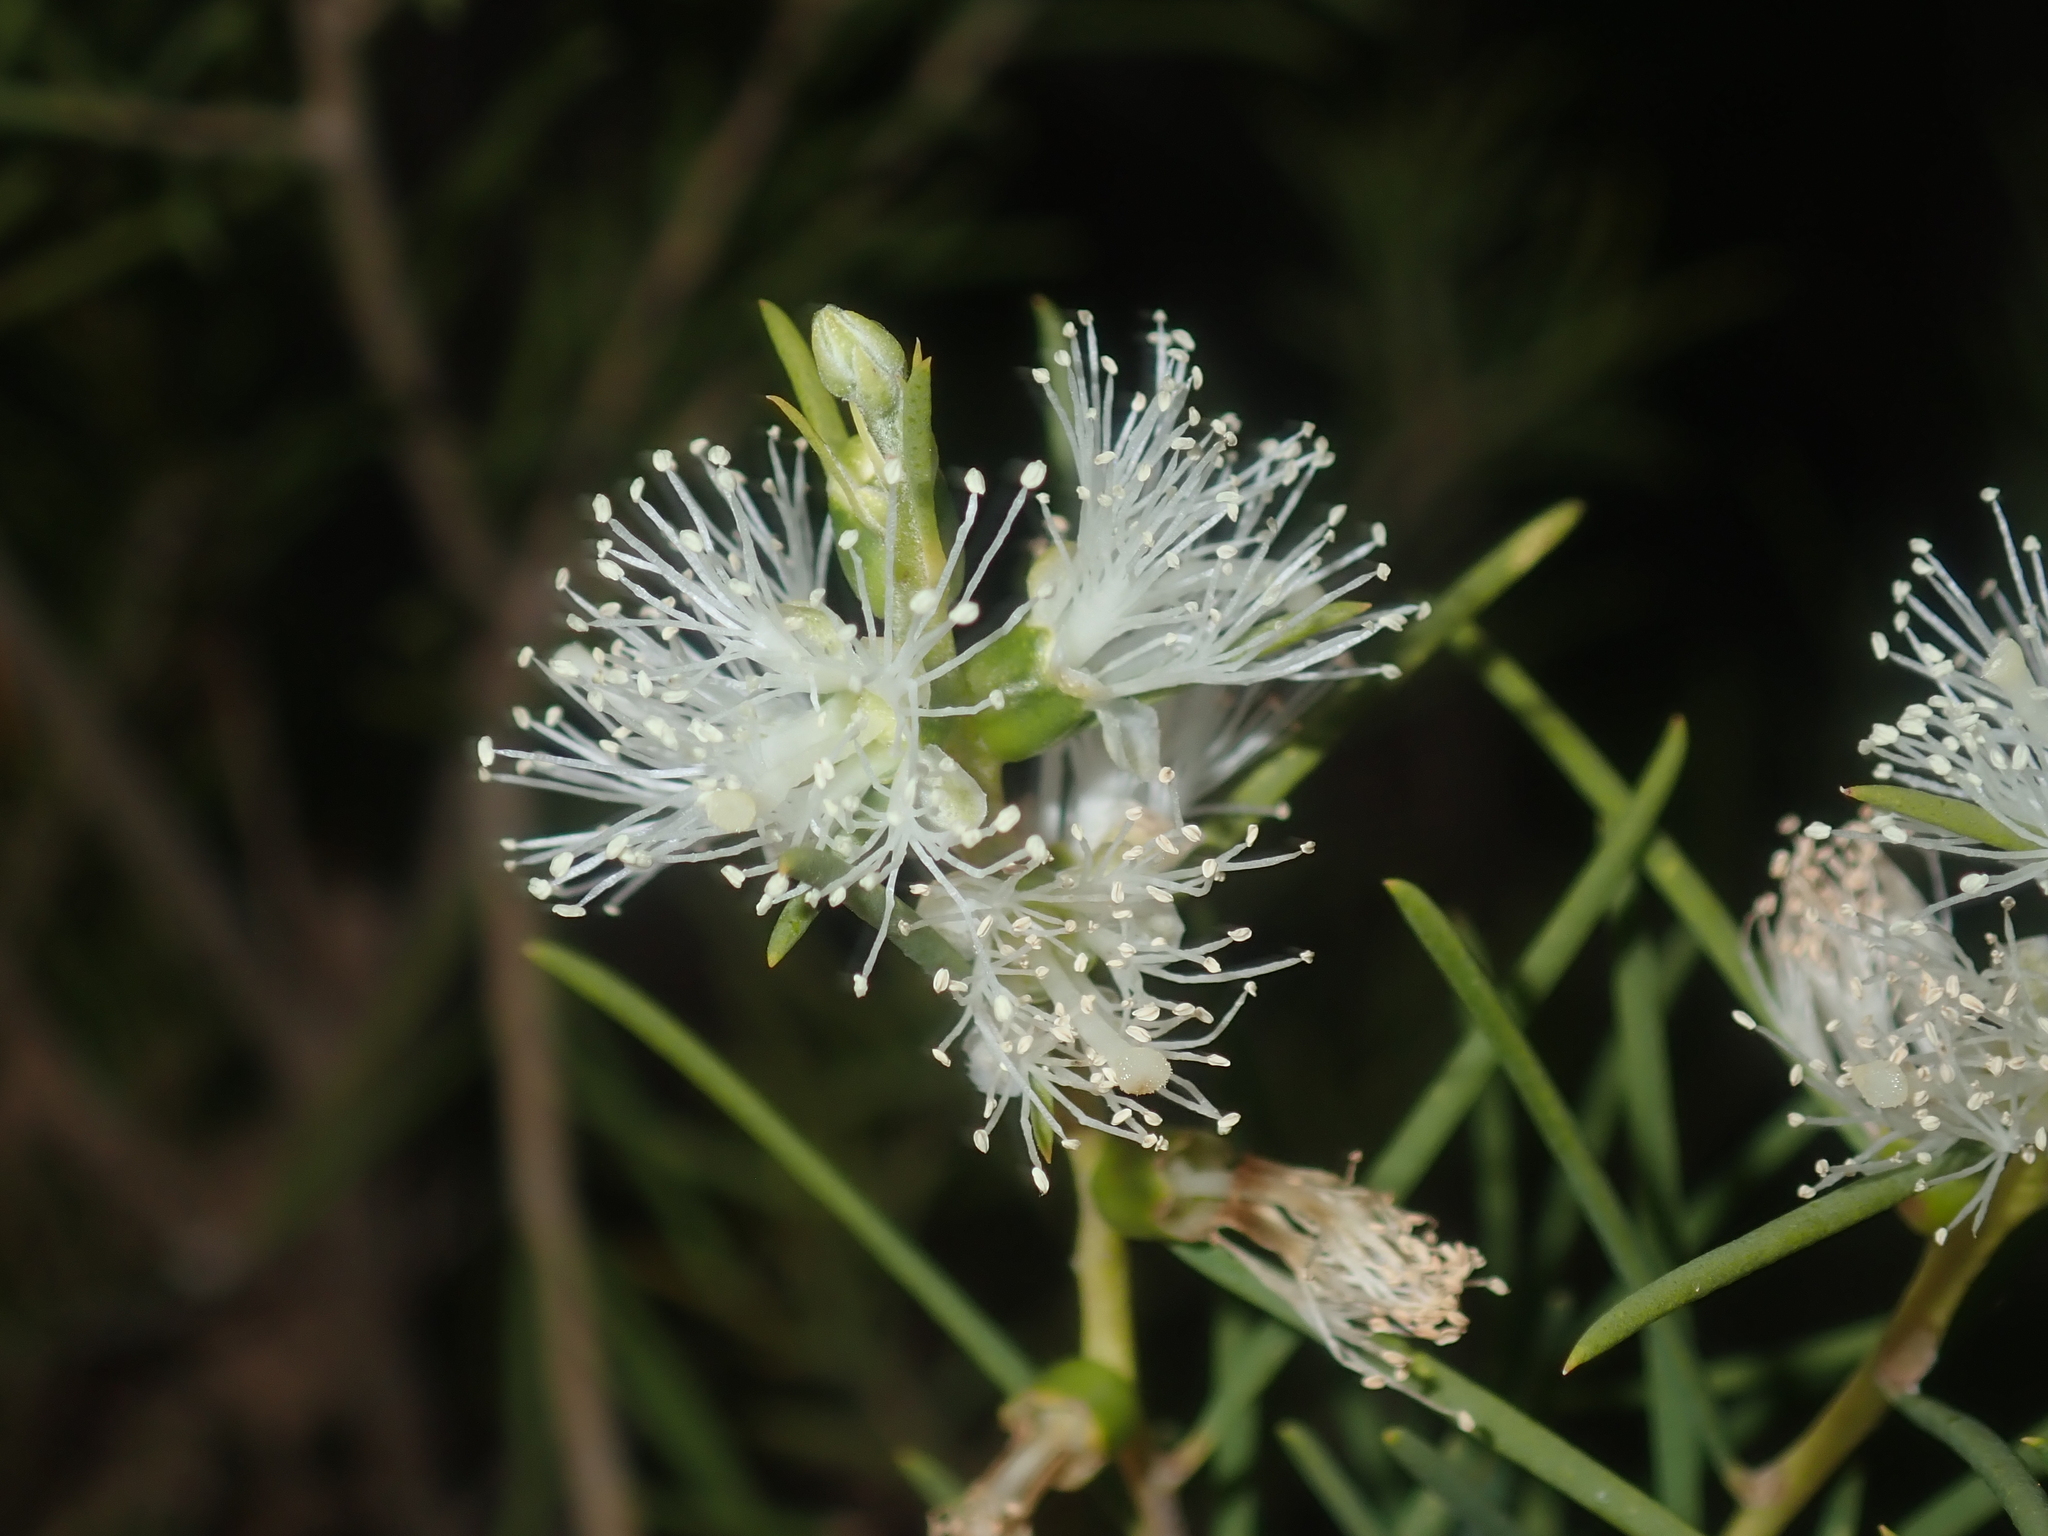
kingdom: Plantae
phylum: Tracheophyta
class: Magnoliopsida
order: Myrtales
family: Myrtaceae
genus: Melaleuca
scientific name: Melaleuca rhaphiophylla
